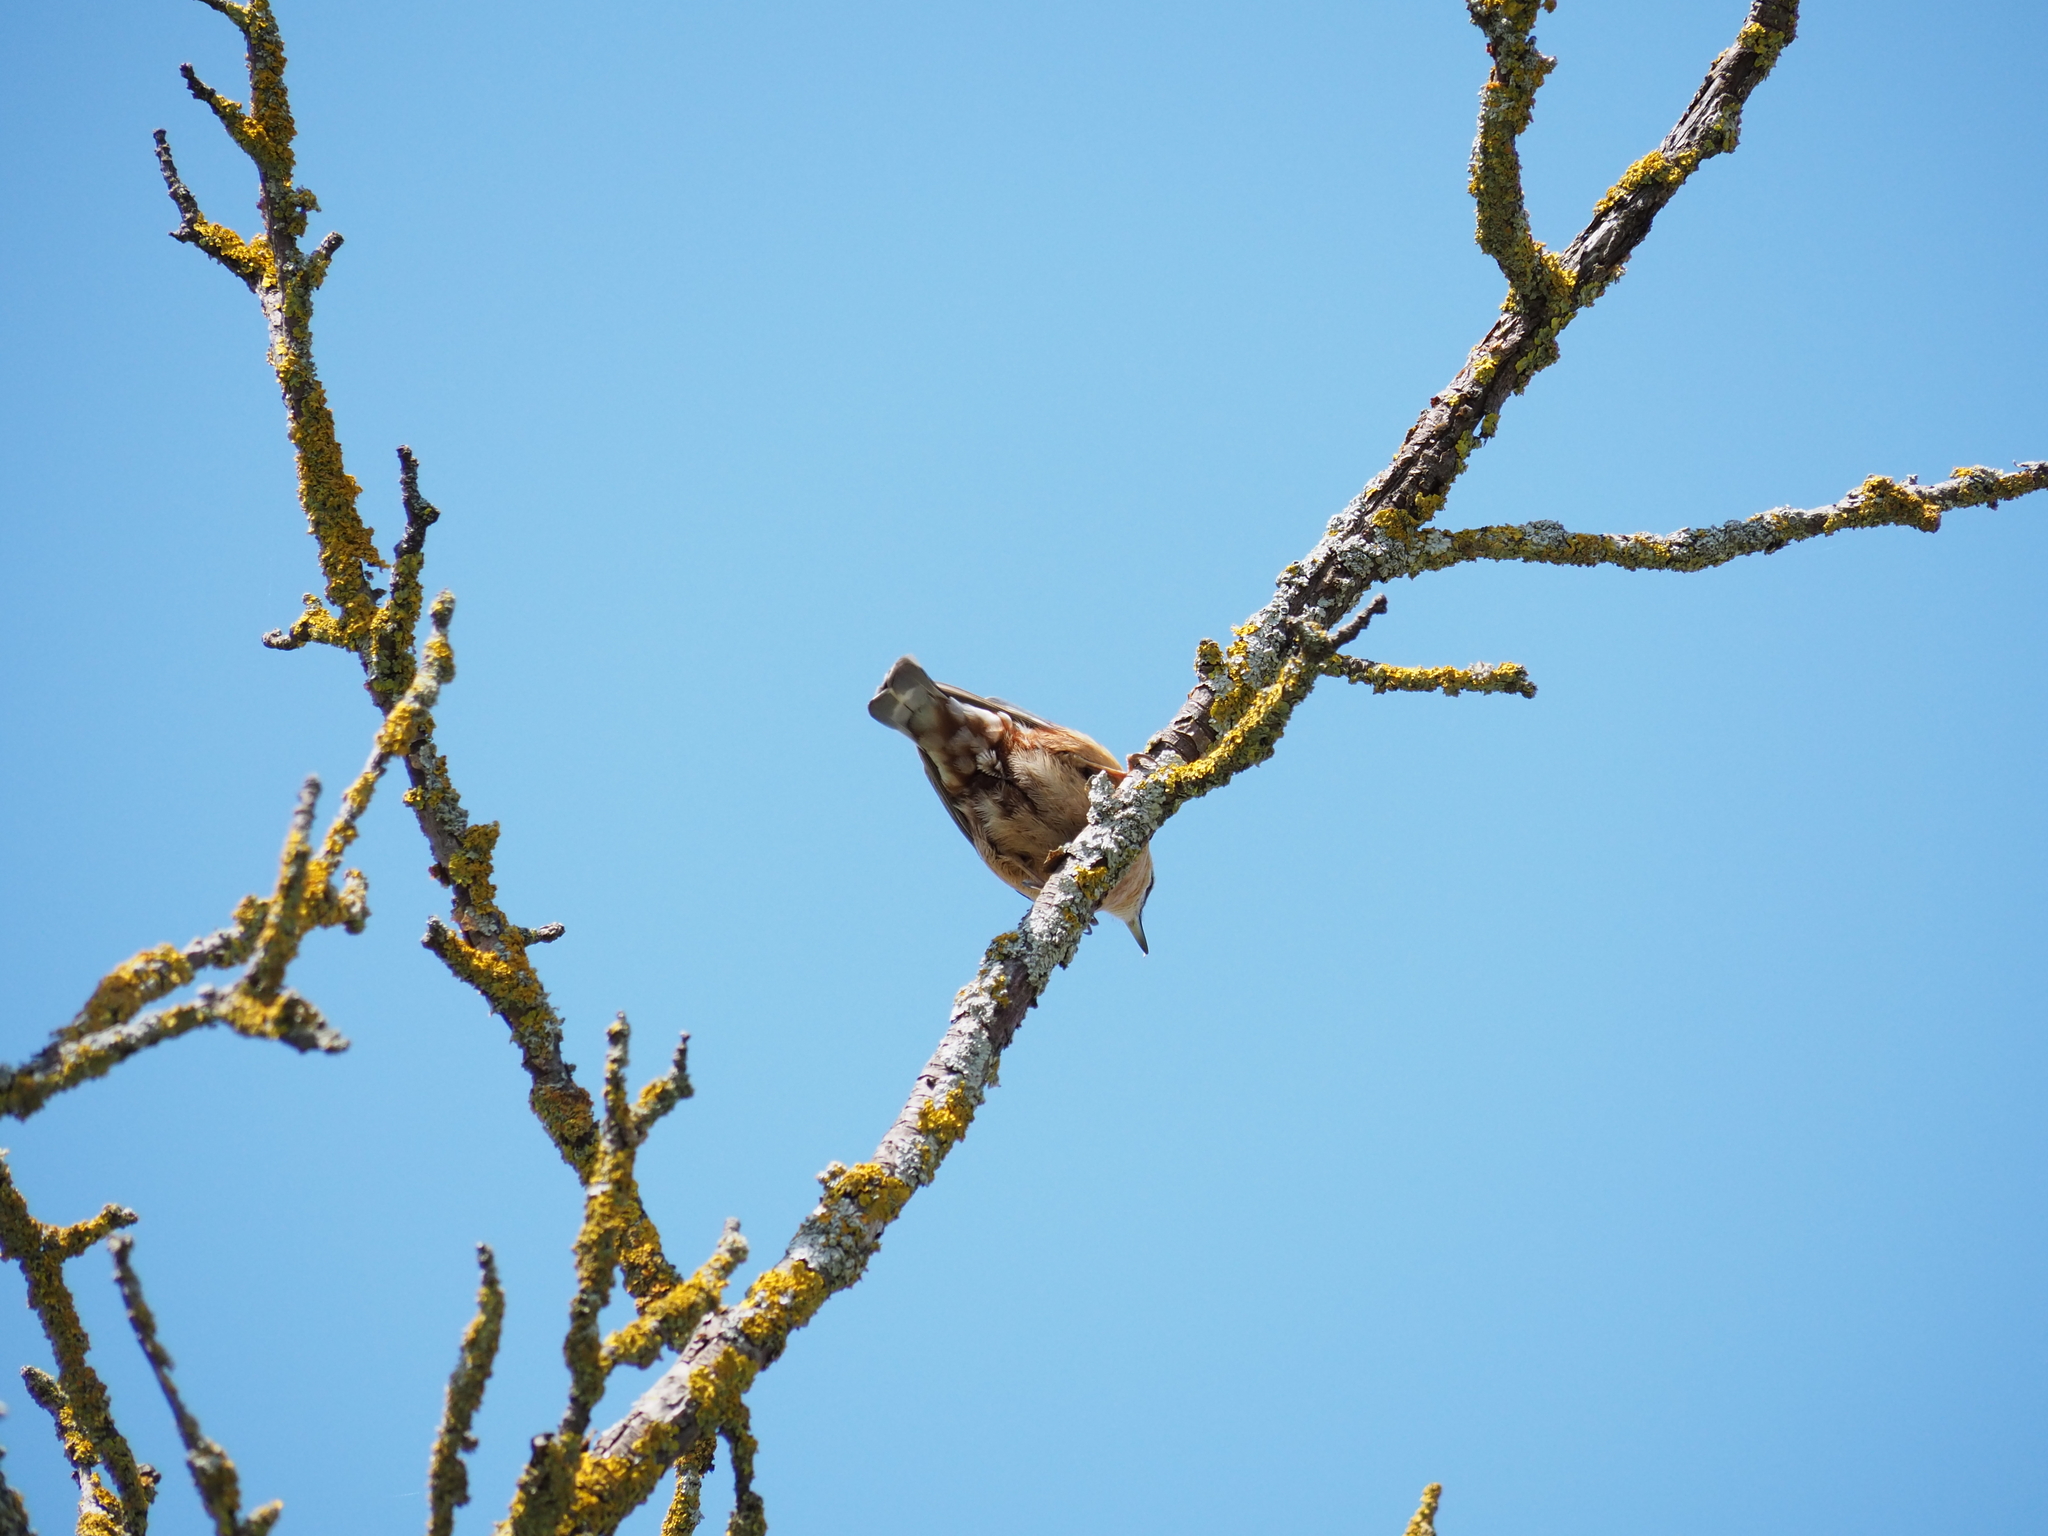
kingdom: Animalia
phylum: Chordata
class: Aves
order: Passeriformes
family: Sittidae
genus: Sitta
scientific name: Sitta europaea
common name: Eurasian nuthatch
